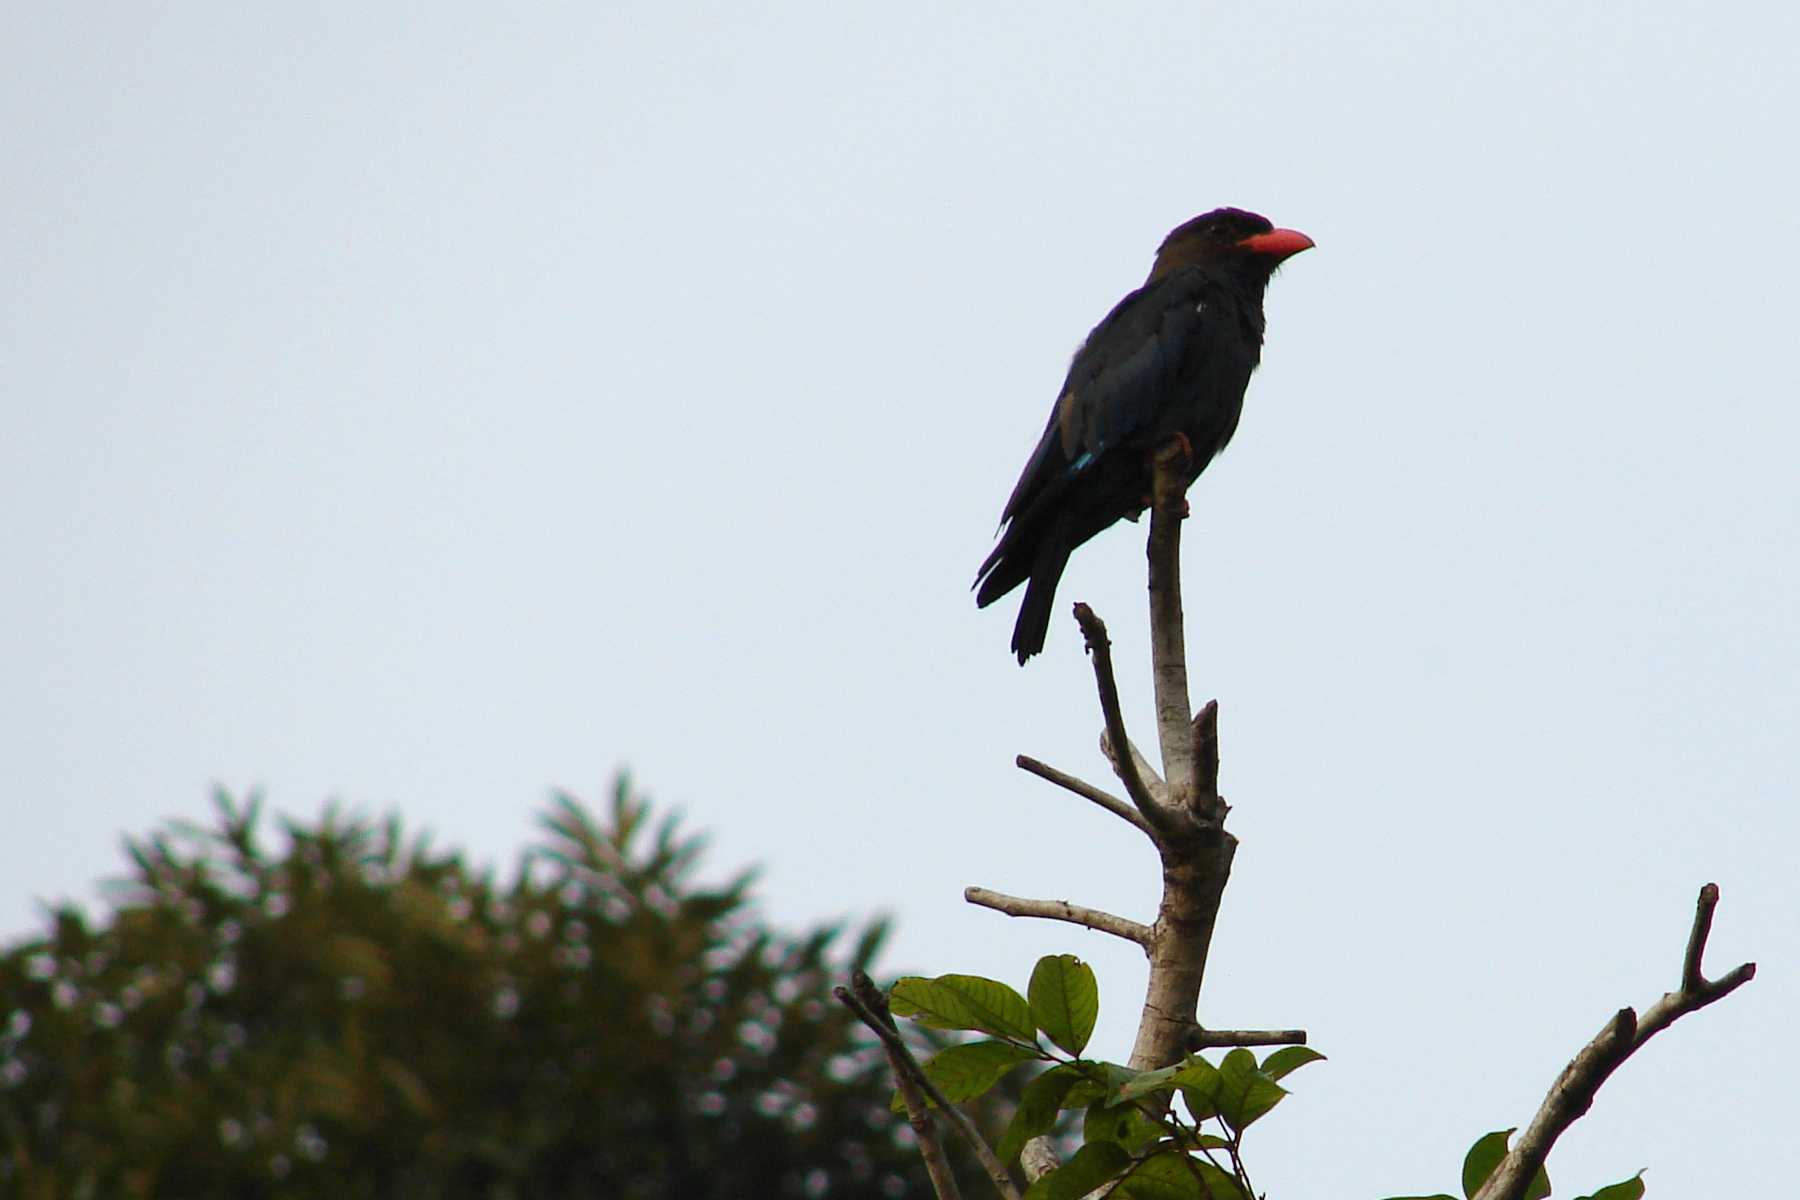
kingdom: Animalia
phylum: Chordata
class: Aves
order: Coraciiformes
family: Coraciidae
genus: Eurystomus
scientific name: Eurystomus orientalis
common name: Oriental dollarbird
